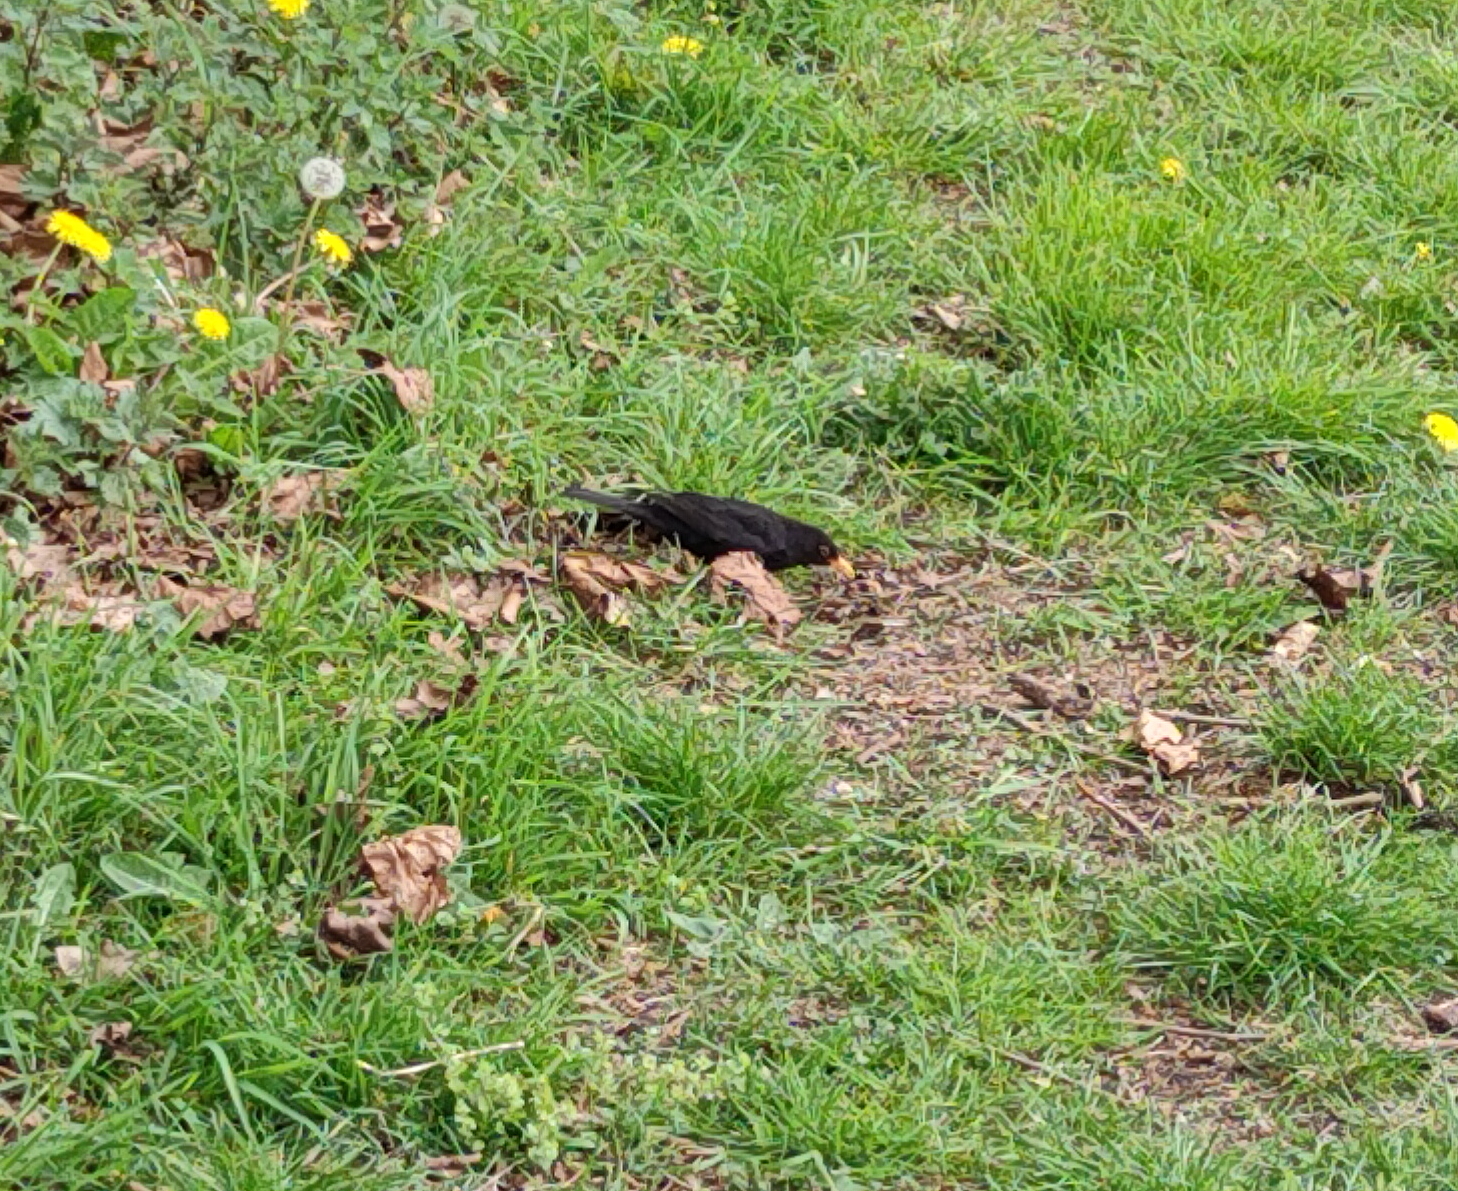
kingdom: Animalia
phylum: Chordata
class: Aves
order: Passeriformes
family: Turdidae
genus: Turdus
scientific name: Turdus merula
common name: Common blackbird
